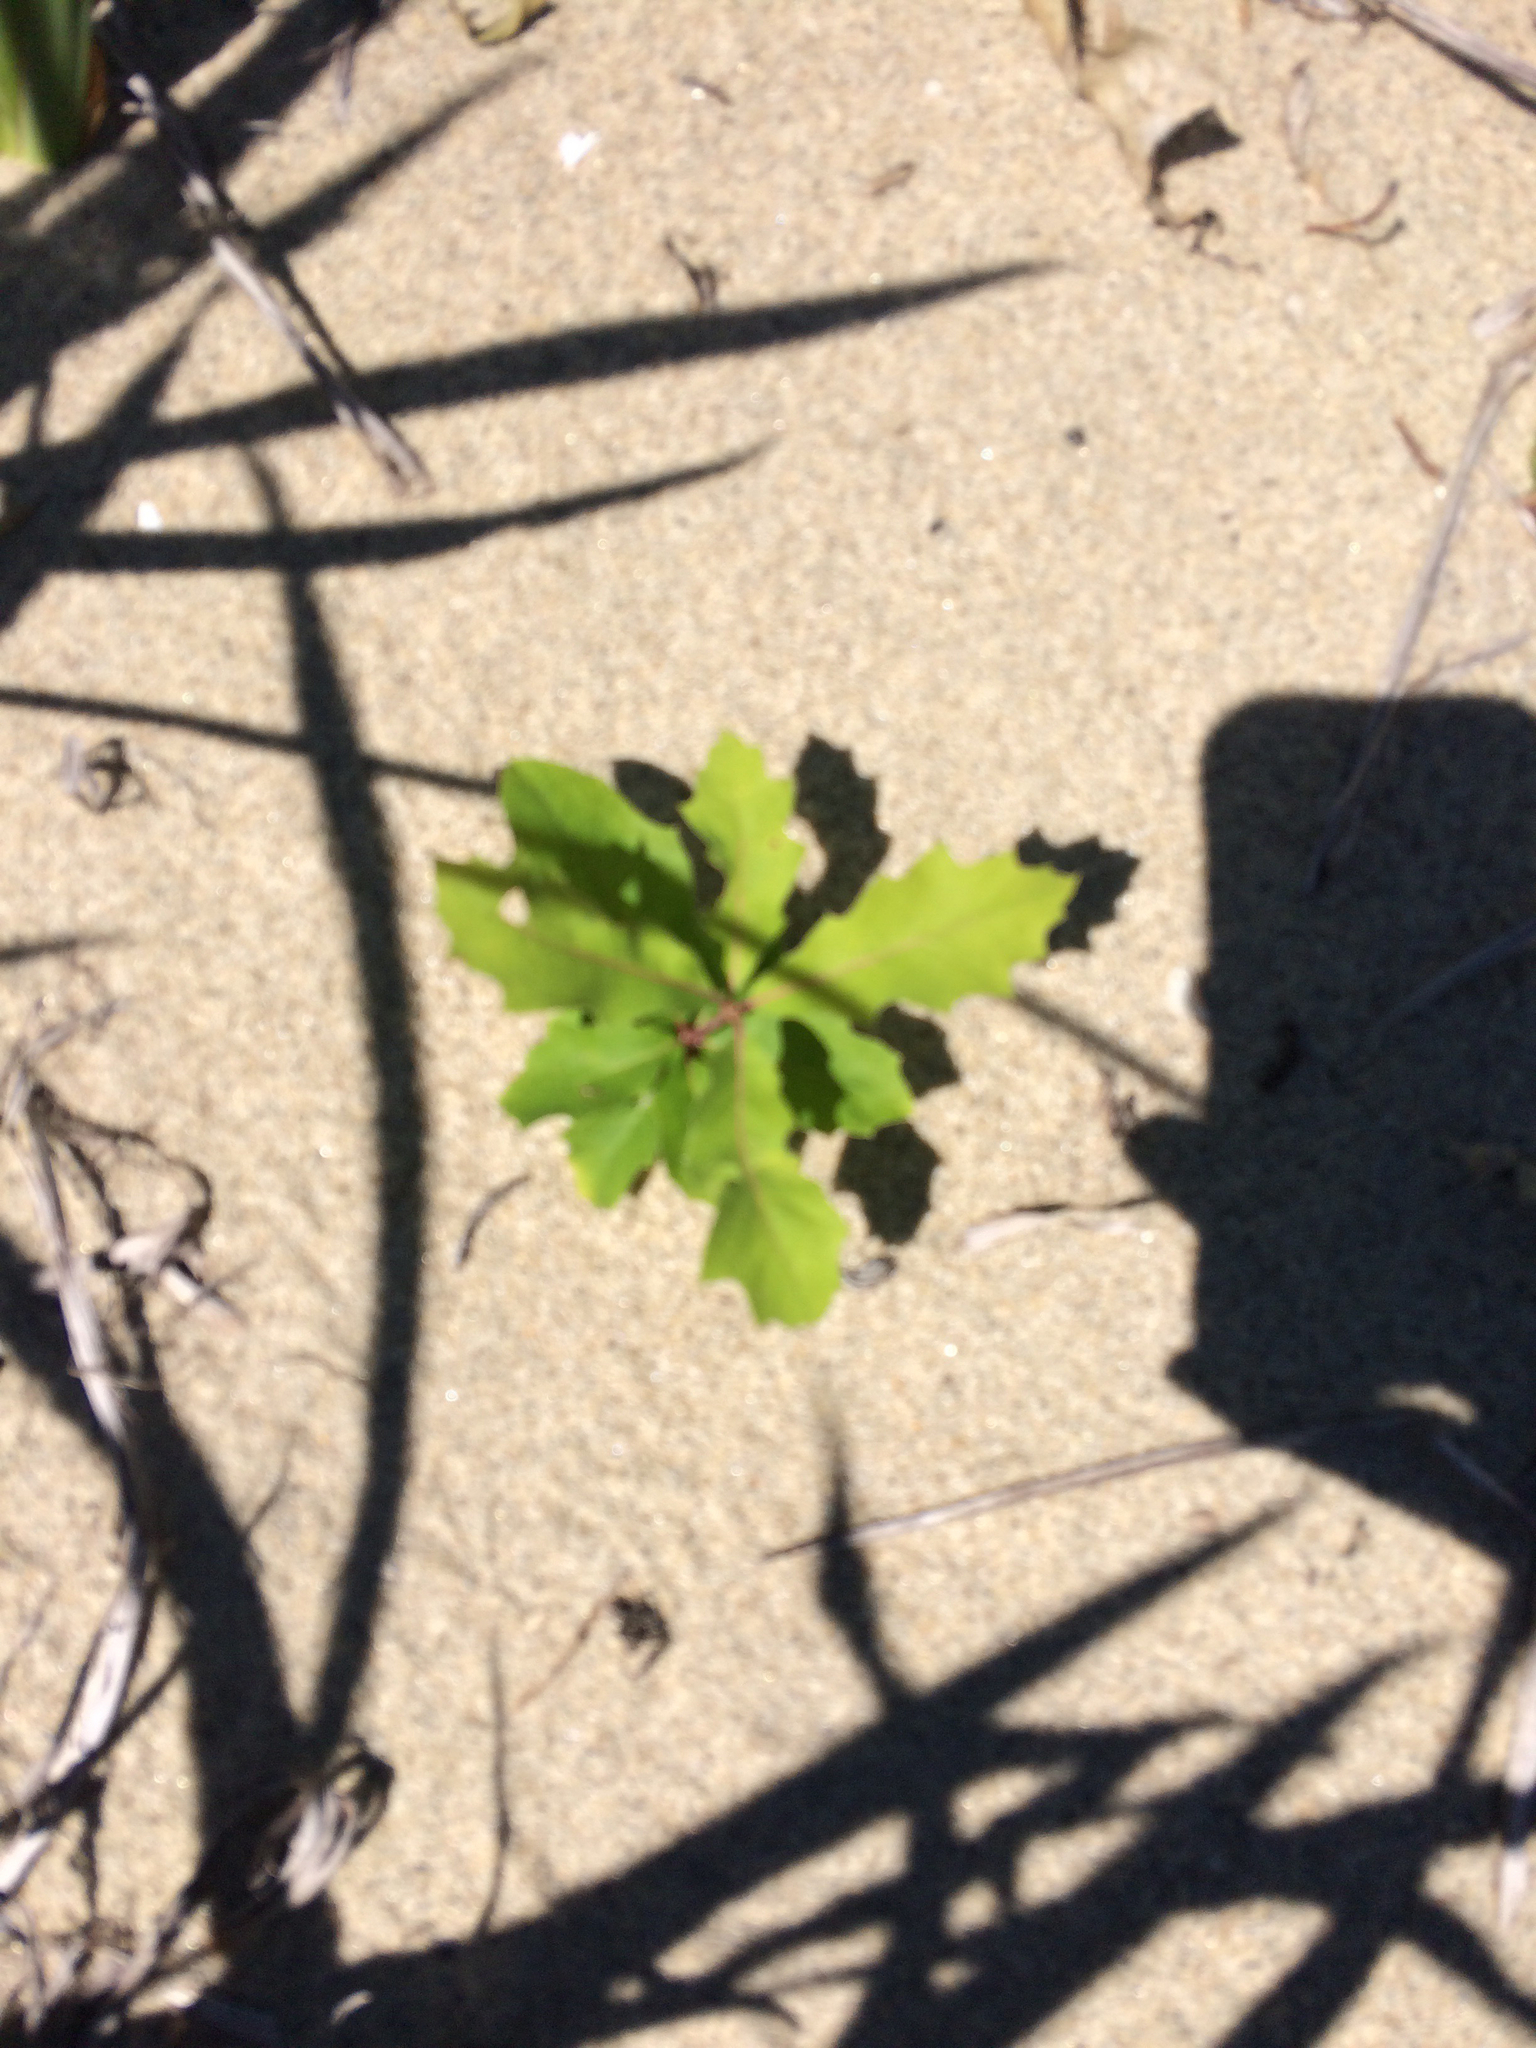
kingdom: Plantae
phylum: Tracheophyta
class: Magnoliopsida
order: Fagales
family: Fagaceae
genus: Quercus
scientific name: Quercus rubra
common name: Red oak
